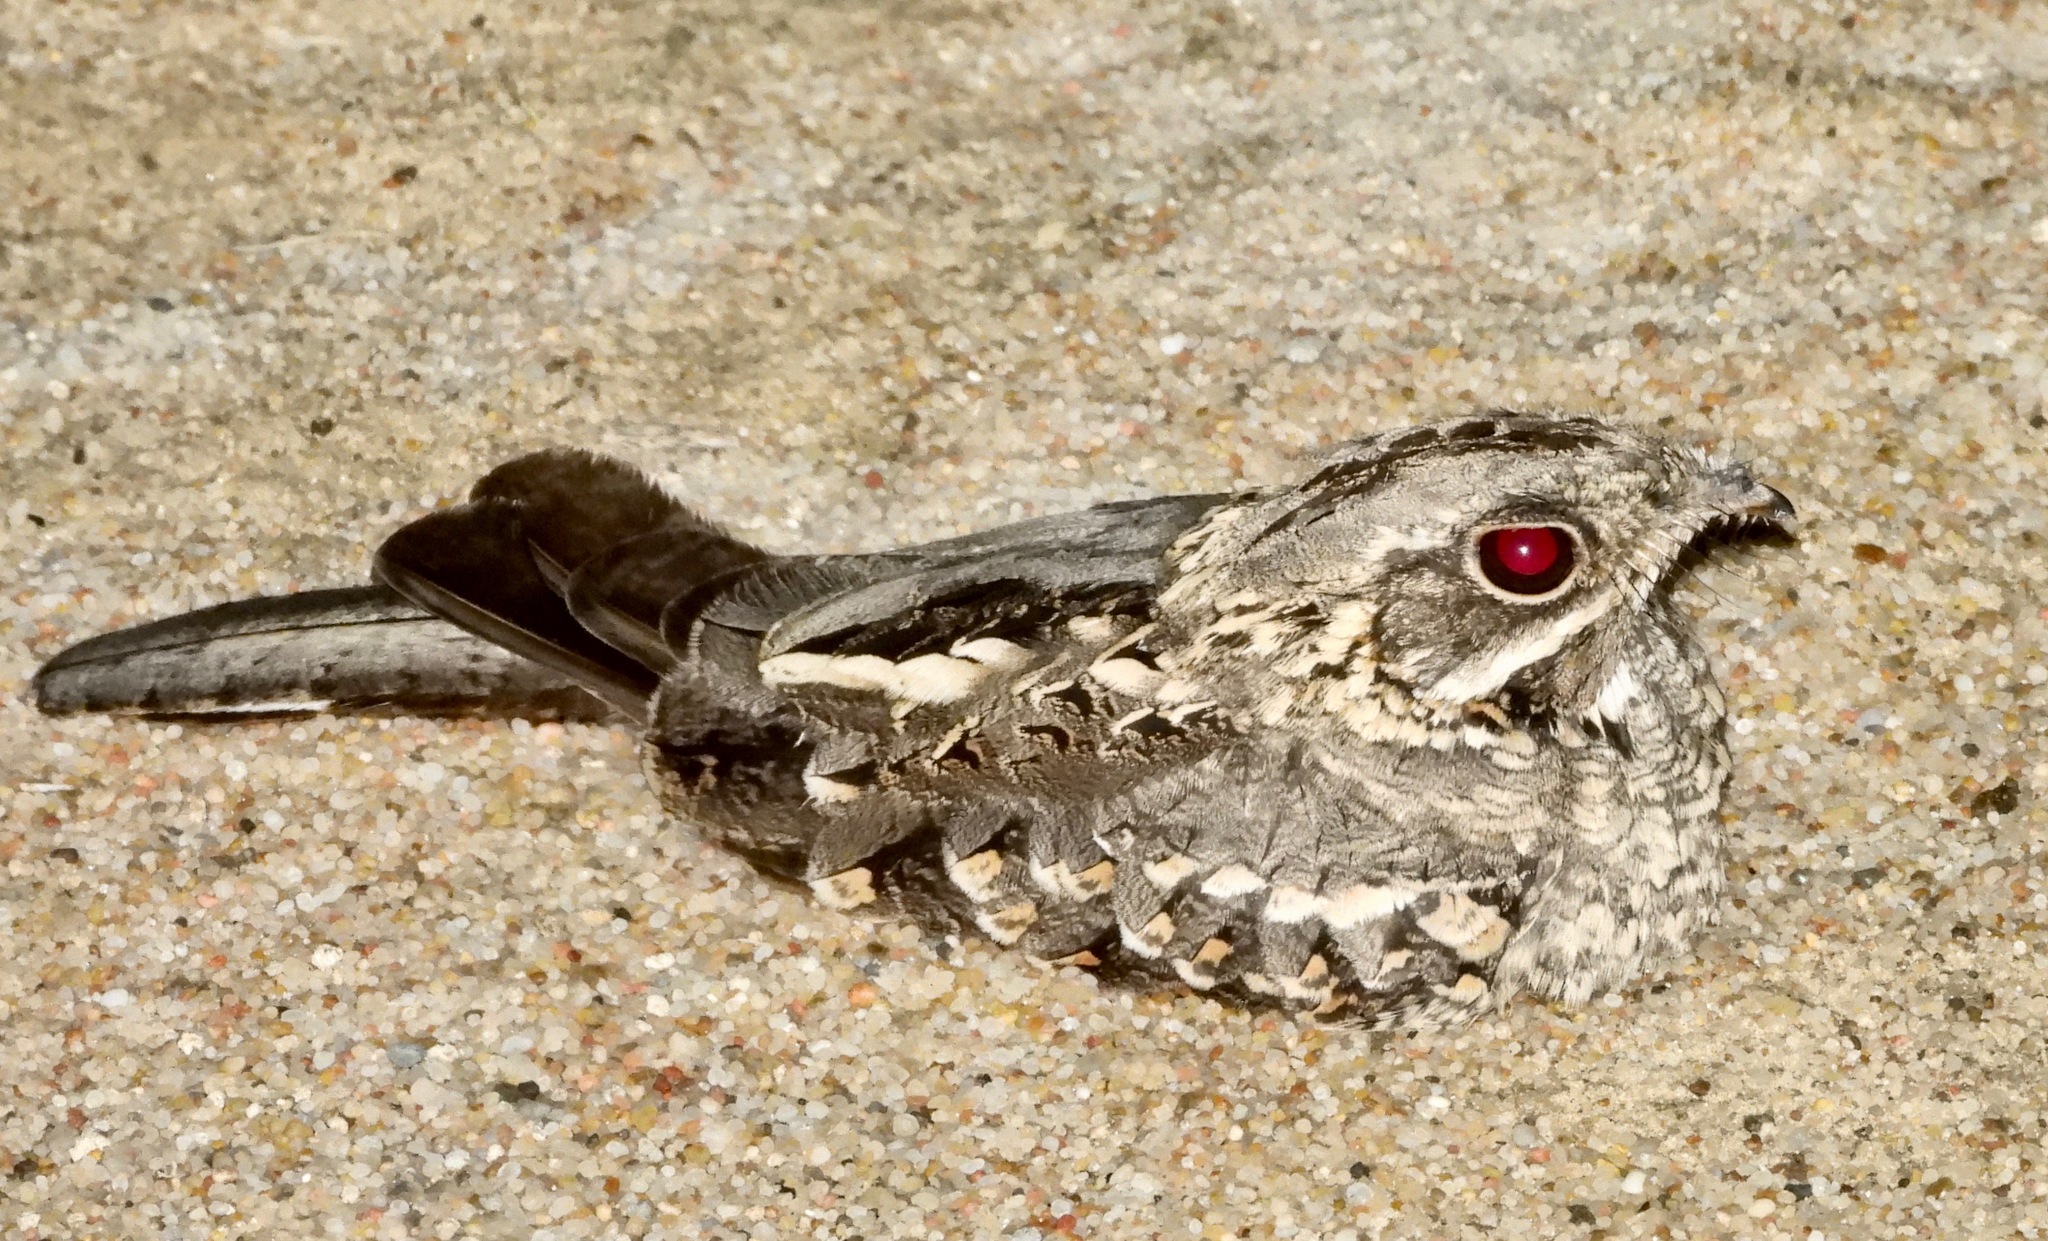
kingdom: Animalia
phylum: Chordata
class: Aves
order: Caprimulgiformes
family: Caprimulgidae
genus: Caprimulgus
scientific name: Caprimulgus asiaticus
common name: Indian nightjar
